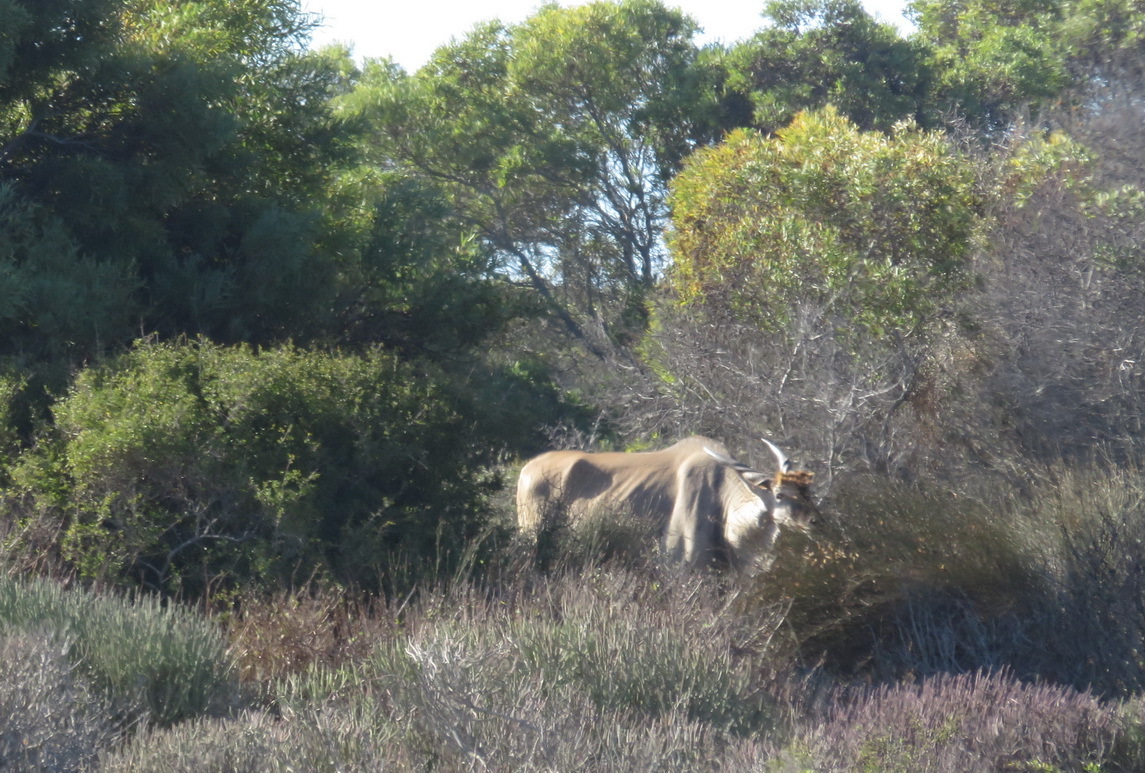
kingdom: Animalia
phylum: Chordata
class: Mammalia
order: Artiodactyla
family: Bovidae
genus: Taurotragus
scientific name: Taurotragus oryx
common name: Common eland
